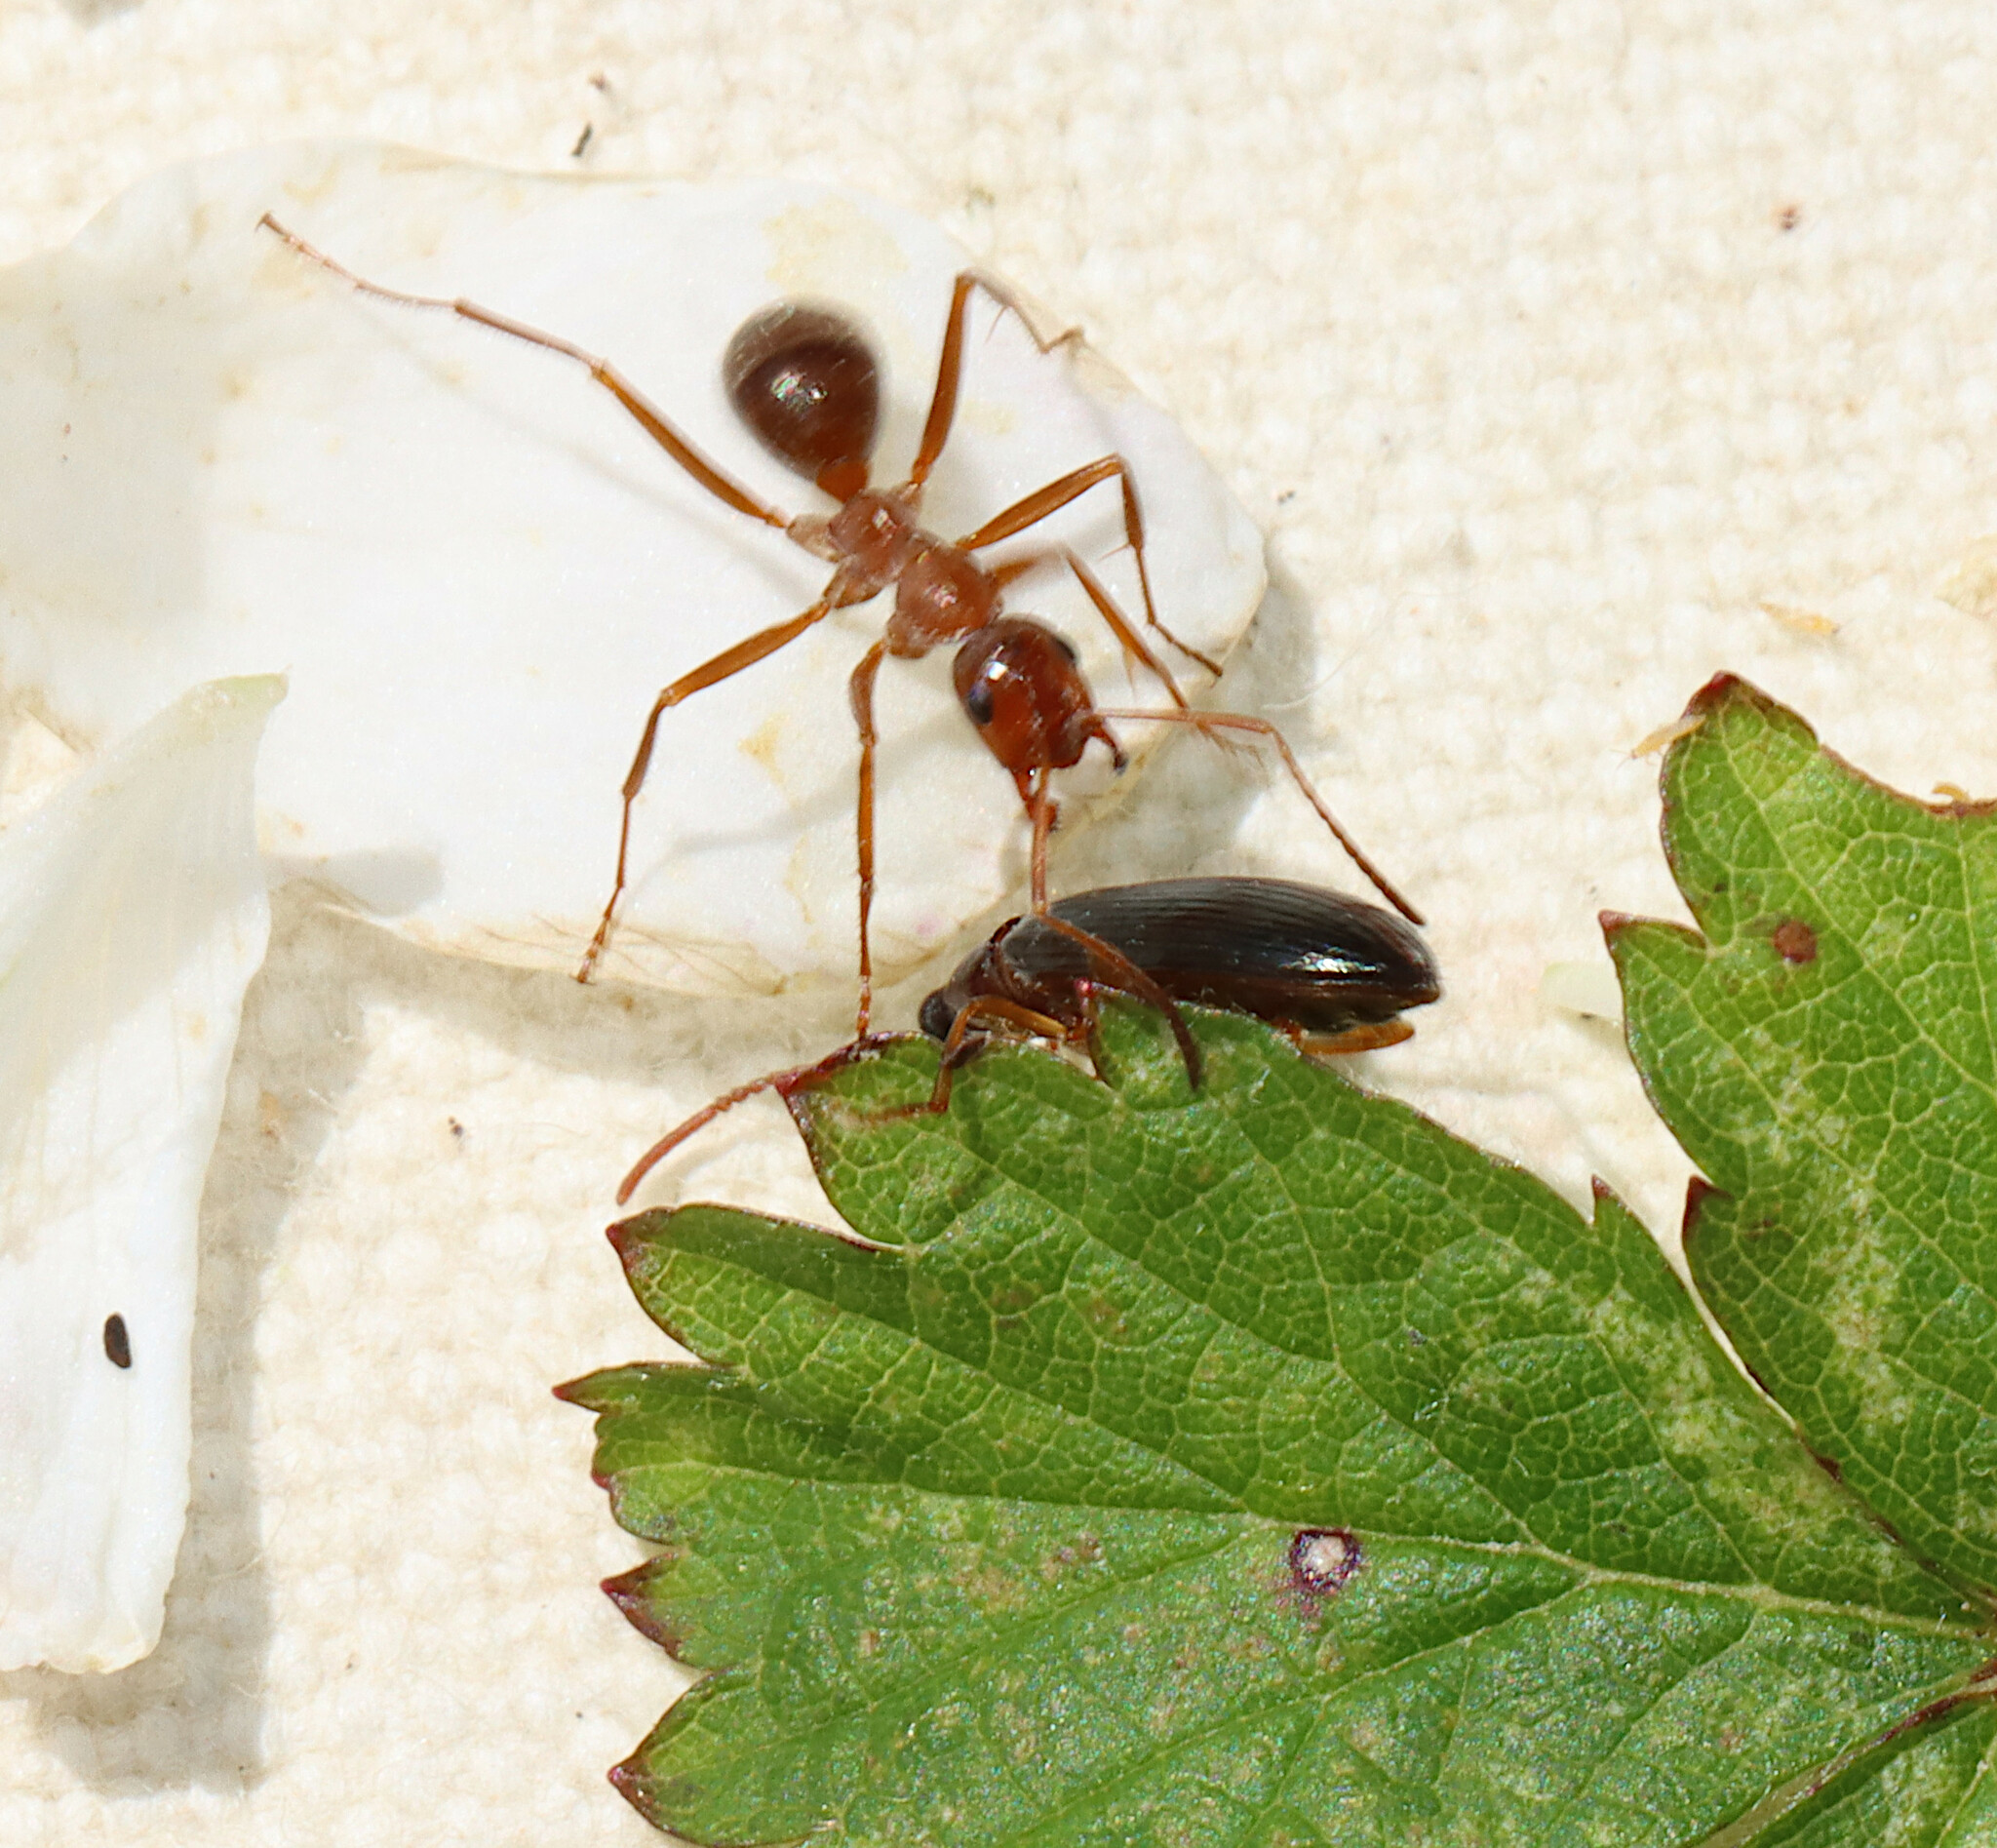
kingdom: Animalia
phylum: Arthropoda
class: Insecta
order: Hymenoptera
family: Formicidae
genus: Formica
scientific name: Formica
